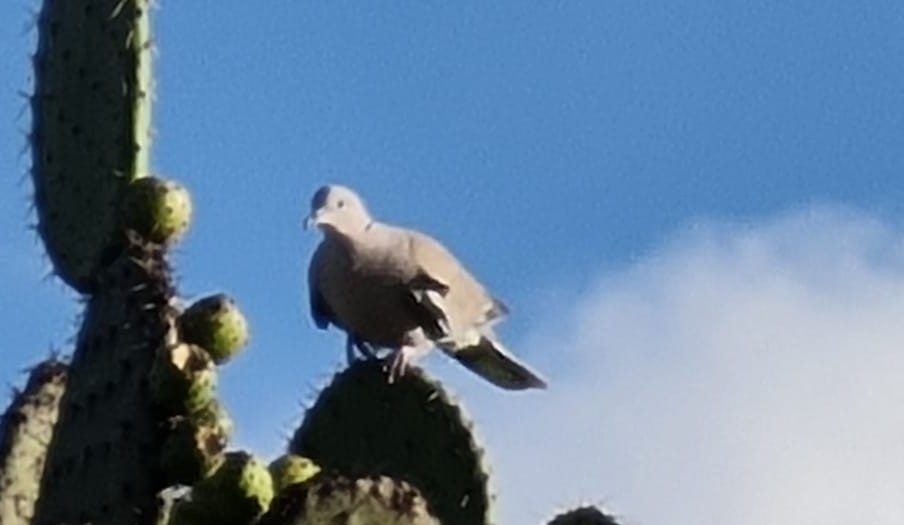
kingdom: Animalia
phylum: Chordata
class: Aves
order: Columbiformes
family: Columbidae
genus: Streptopelia
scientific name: Streptopelia decaocto
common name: Eurasian collared dove
